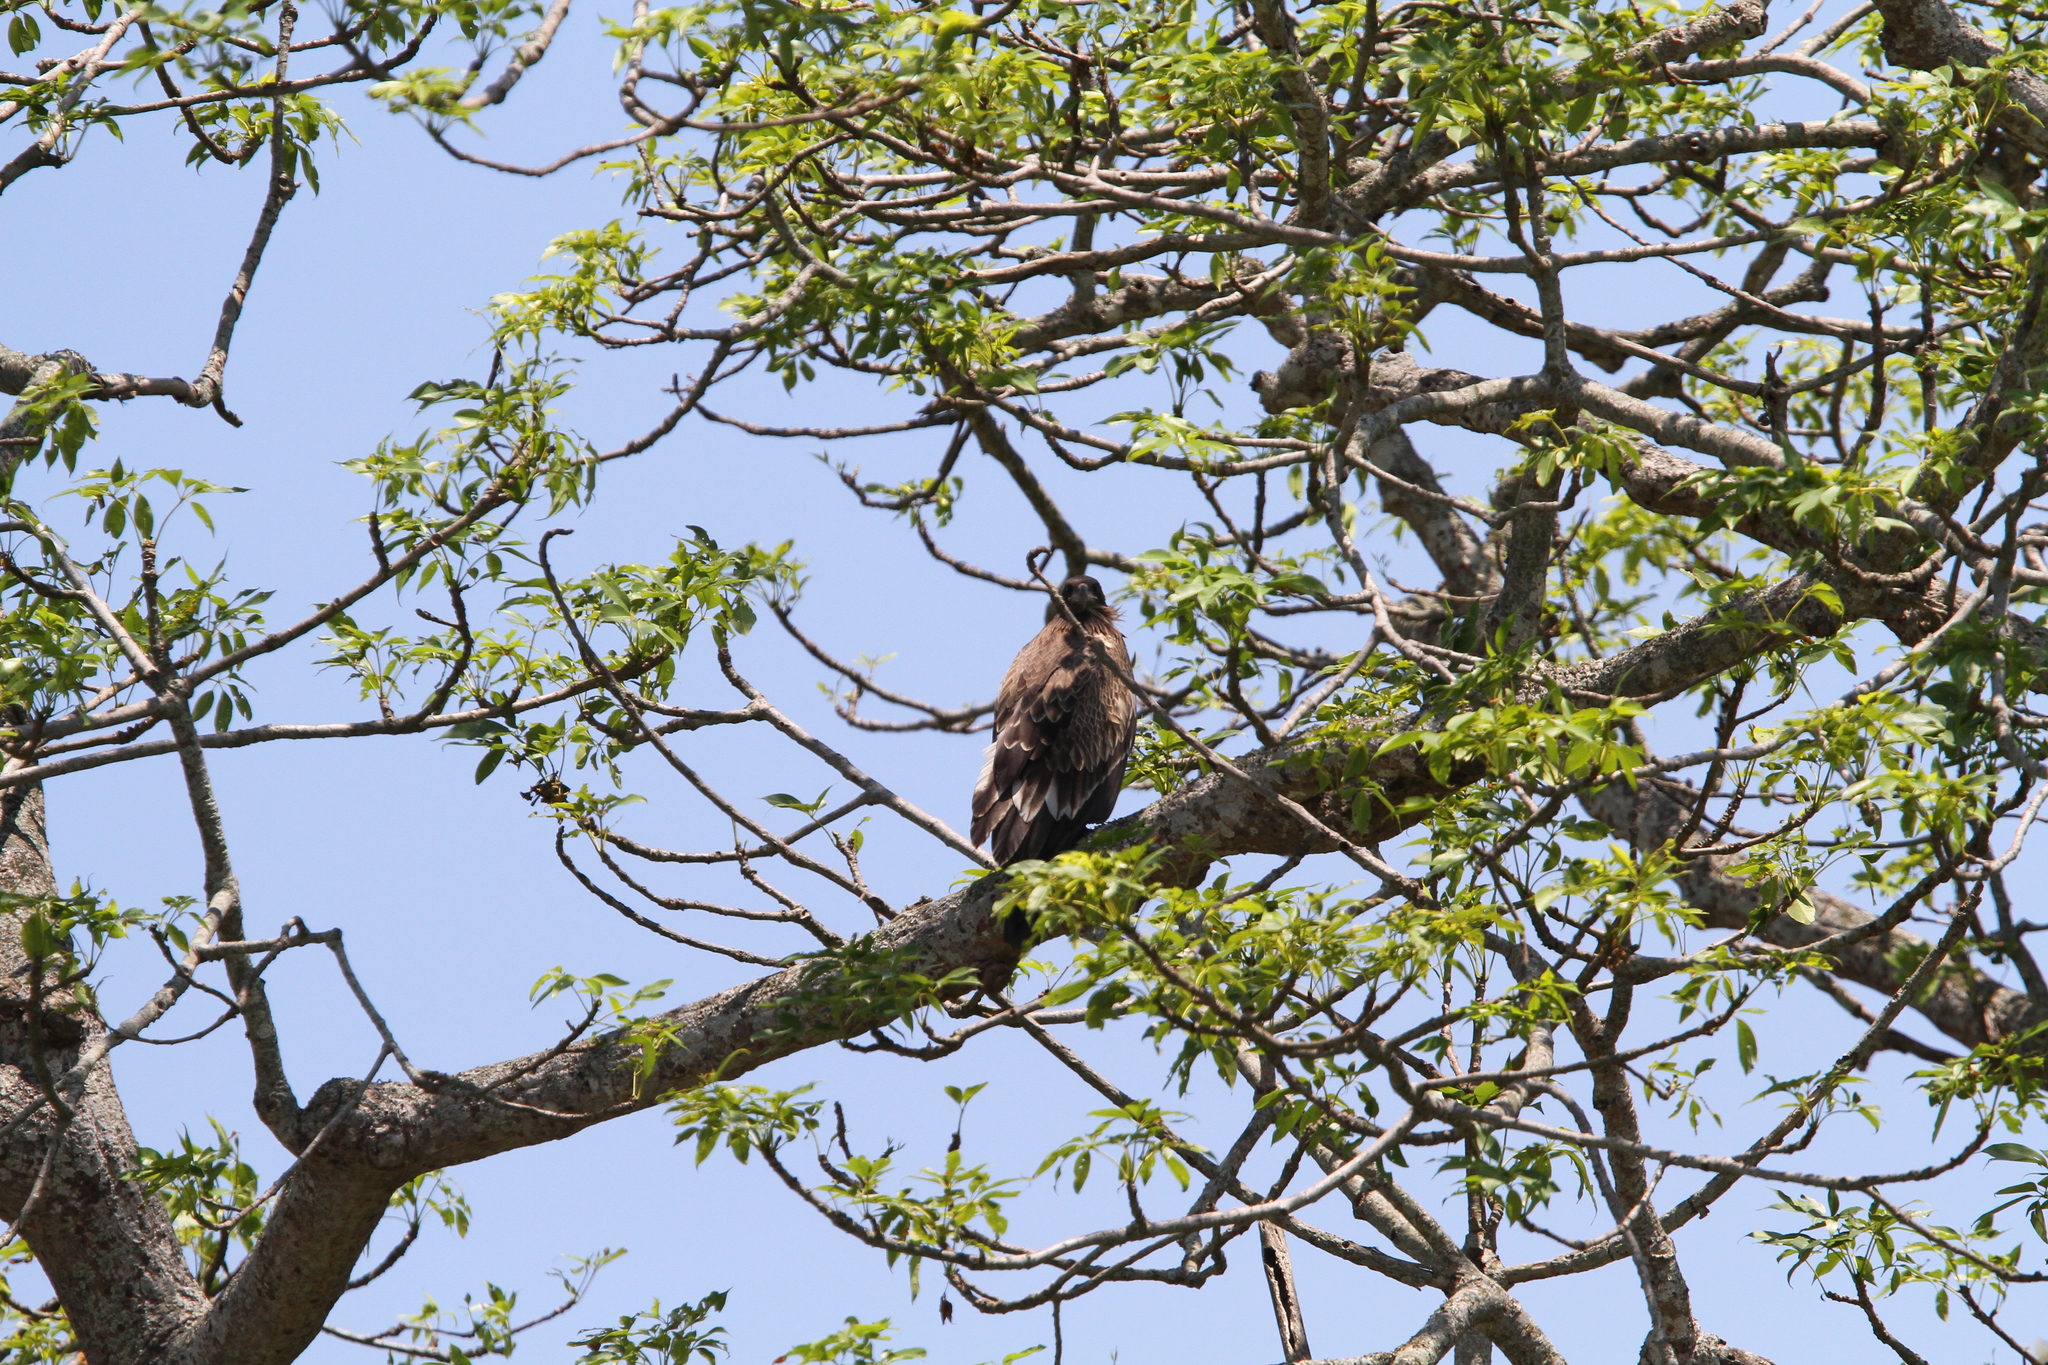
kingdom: Animalia
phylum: Chordata
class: Aves
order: Accipitriformes
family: Accipitridae
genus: Haliaeetus
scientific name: Haliaeetus leucoryphus
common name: Pallas's fish eagle
